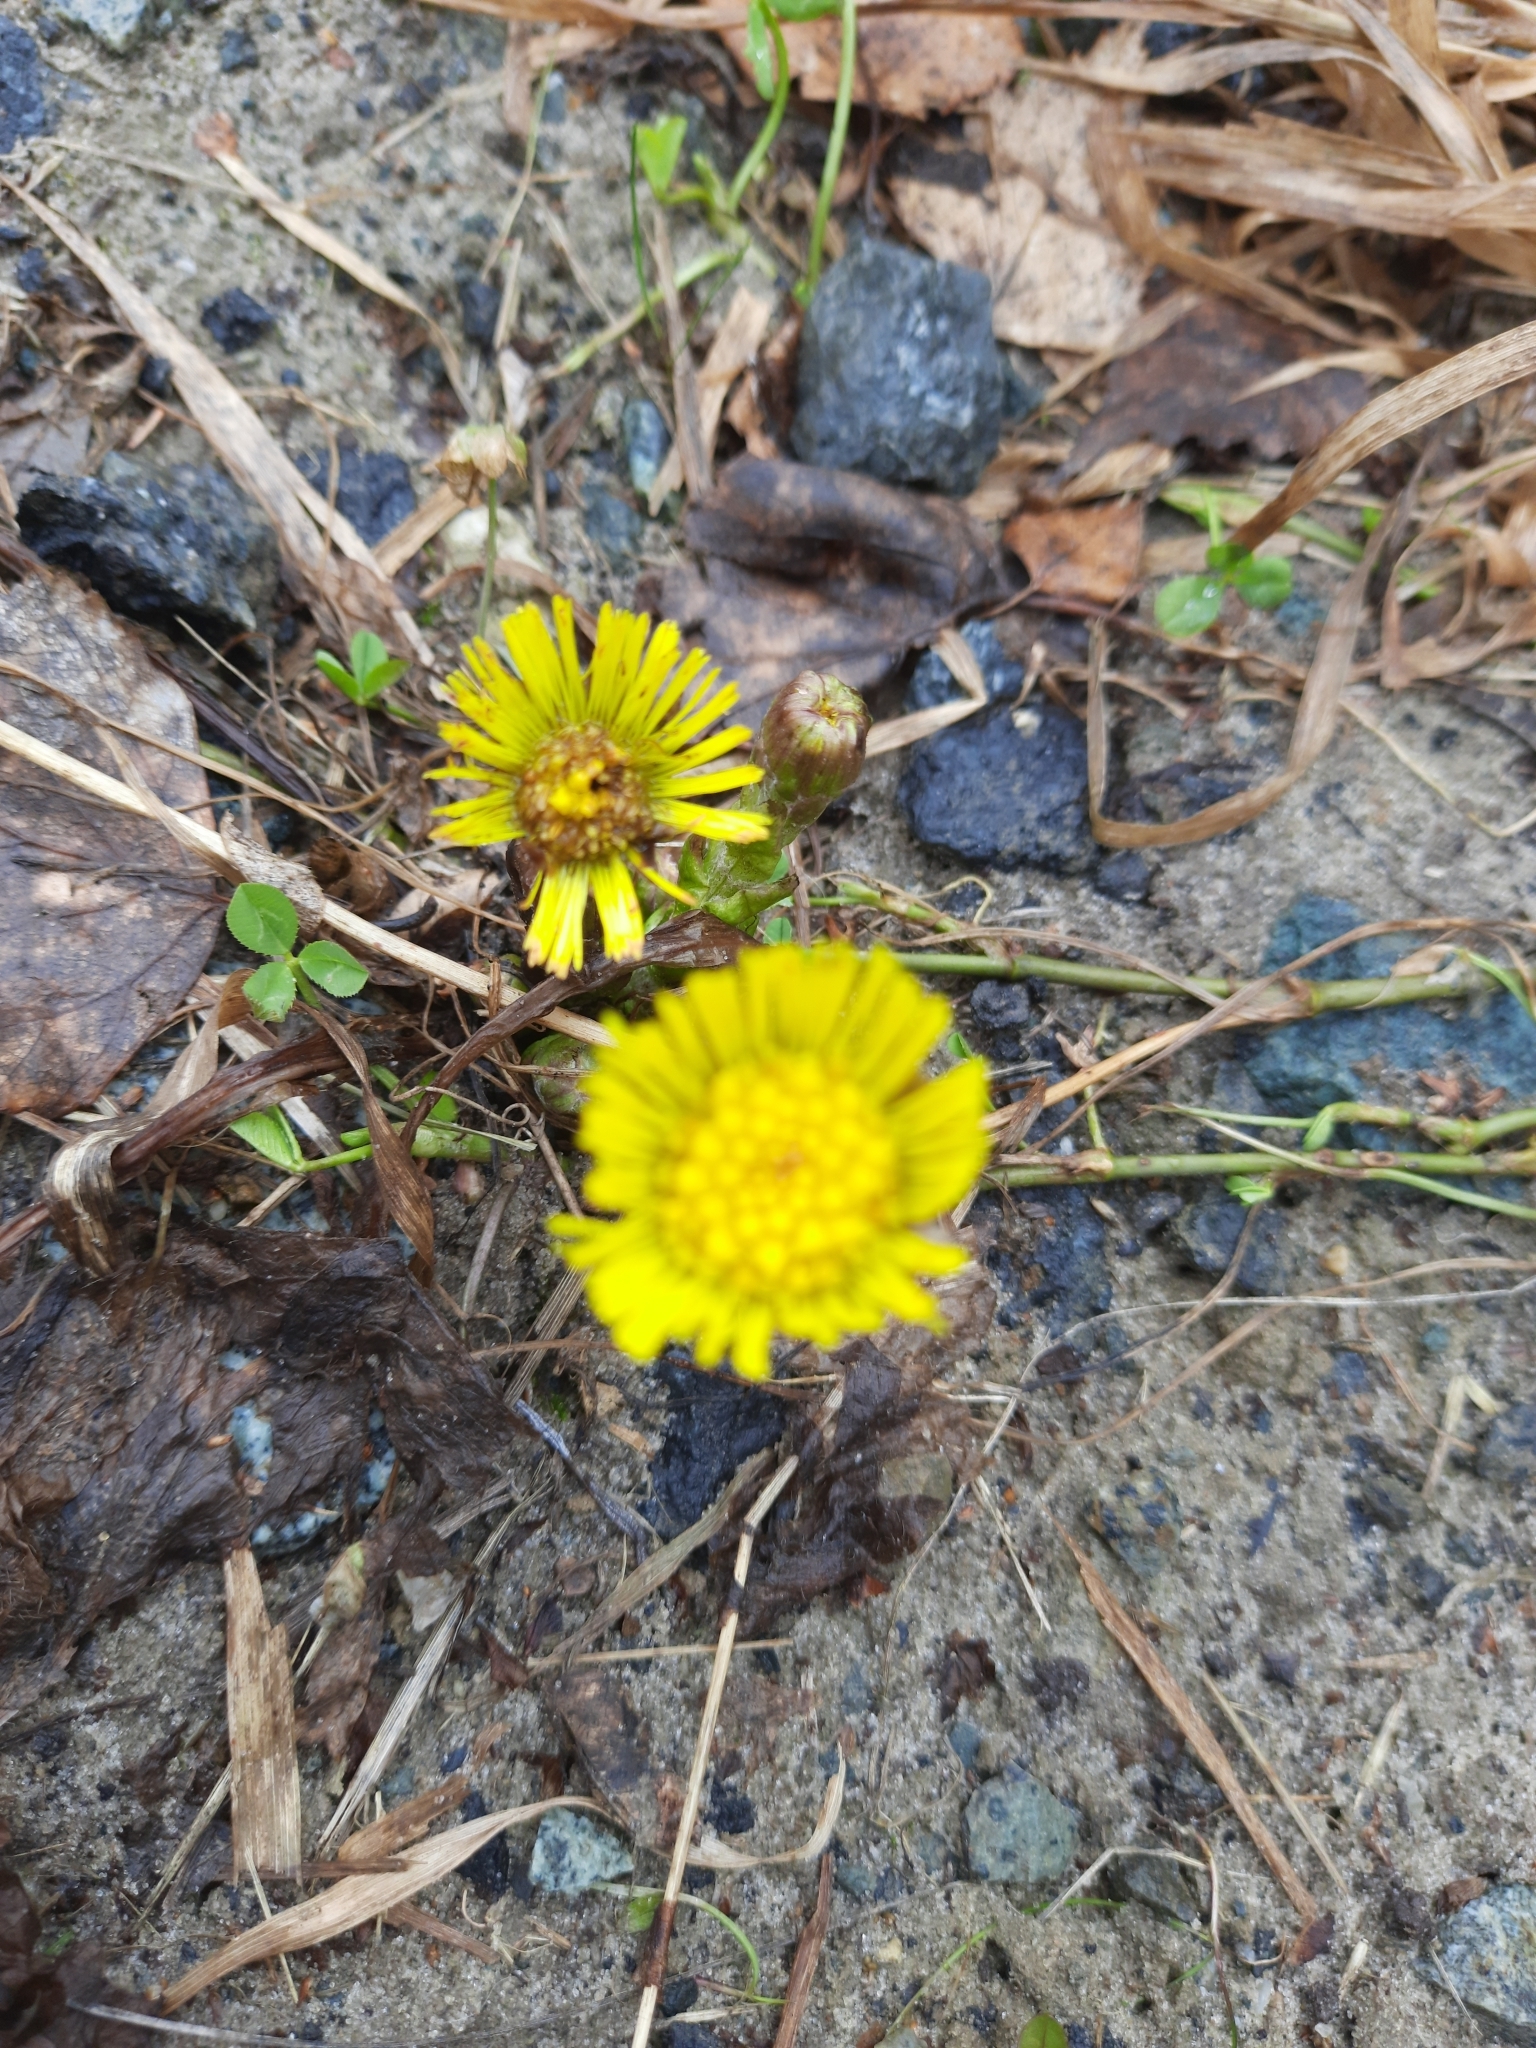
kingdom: Plantae
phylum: Tracheophyta
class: Magnoliopsida
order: Asterales
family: Asteraceae
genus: Tussilago
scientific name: Tussilago farfara
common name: Coltsfoot
